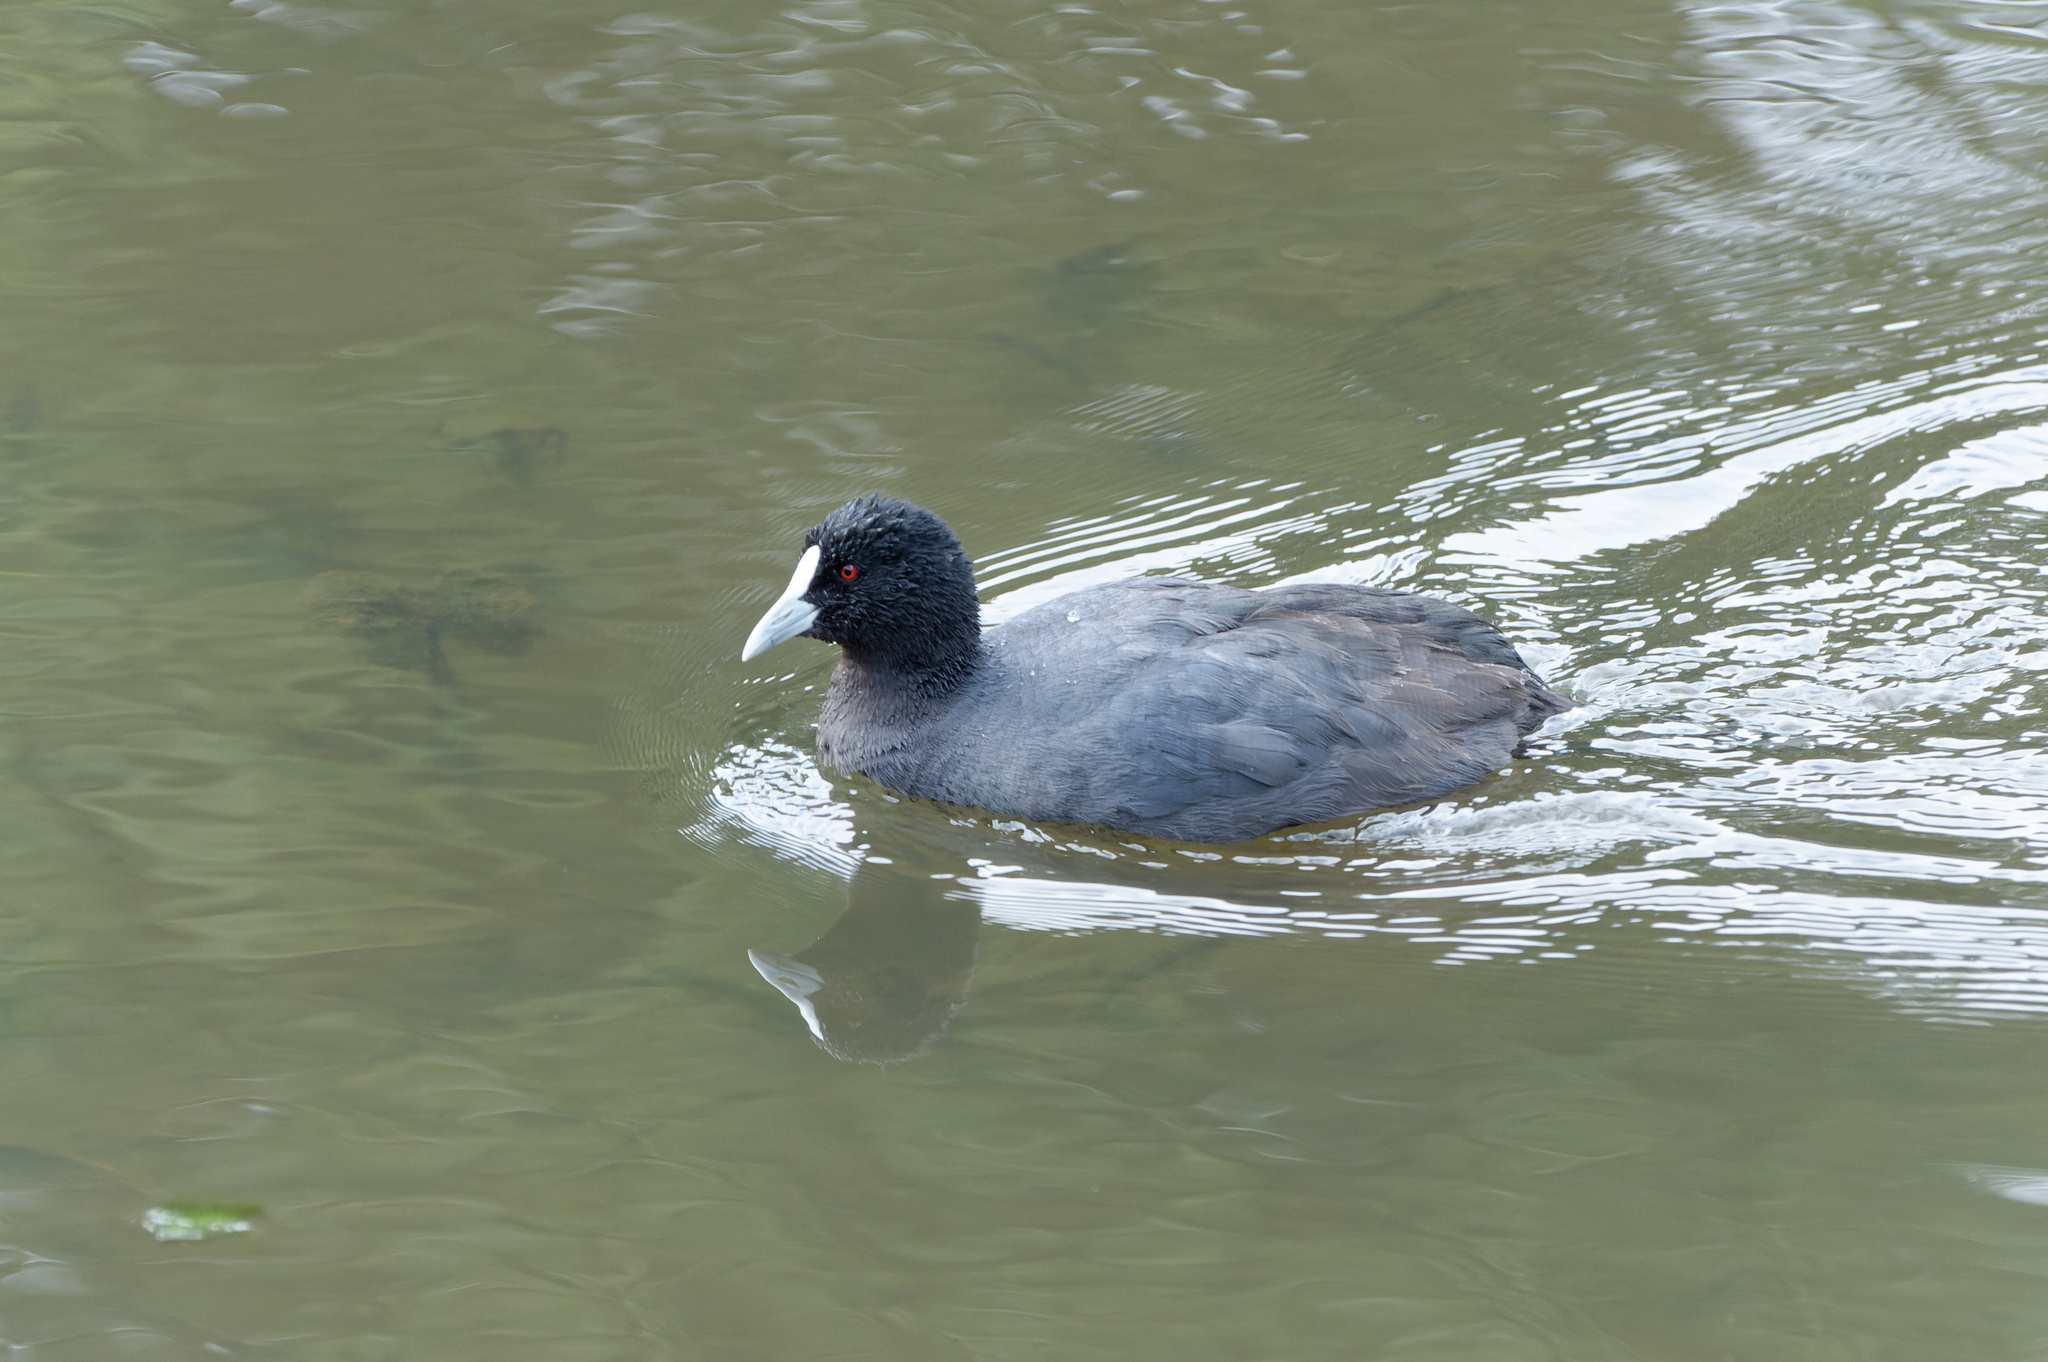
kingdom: Animalia
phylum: Chordata
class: Aves
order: Gruiformes
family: Rallidae
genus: Fulica
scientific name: Fulica atra
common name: Eurasian coot
